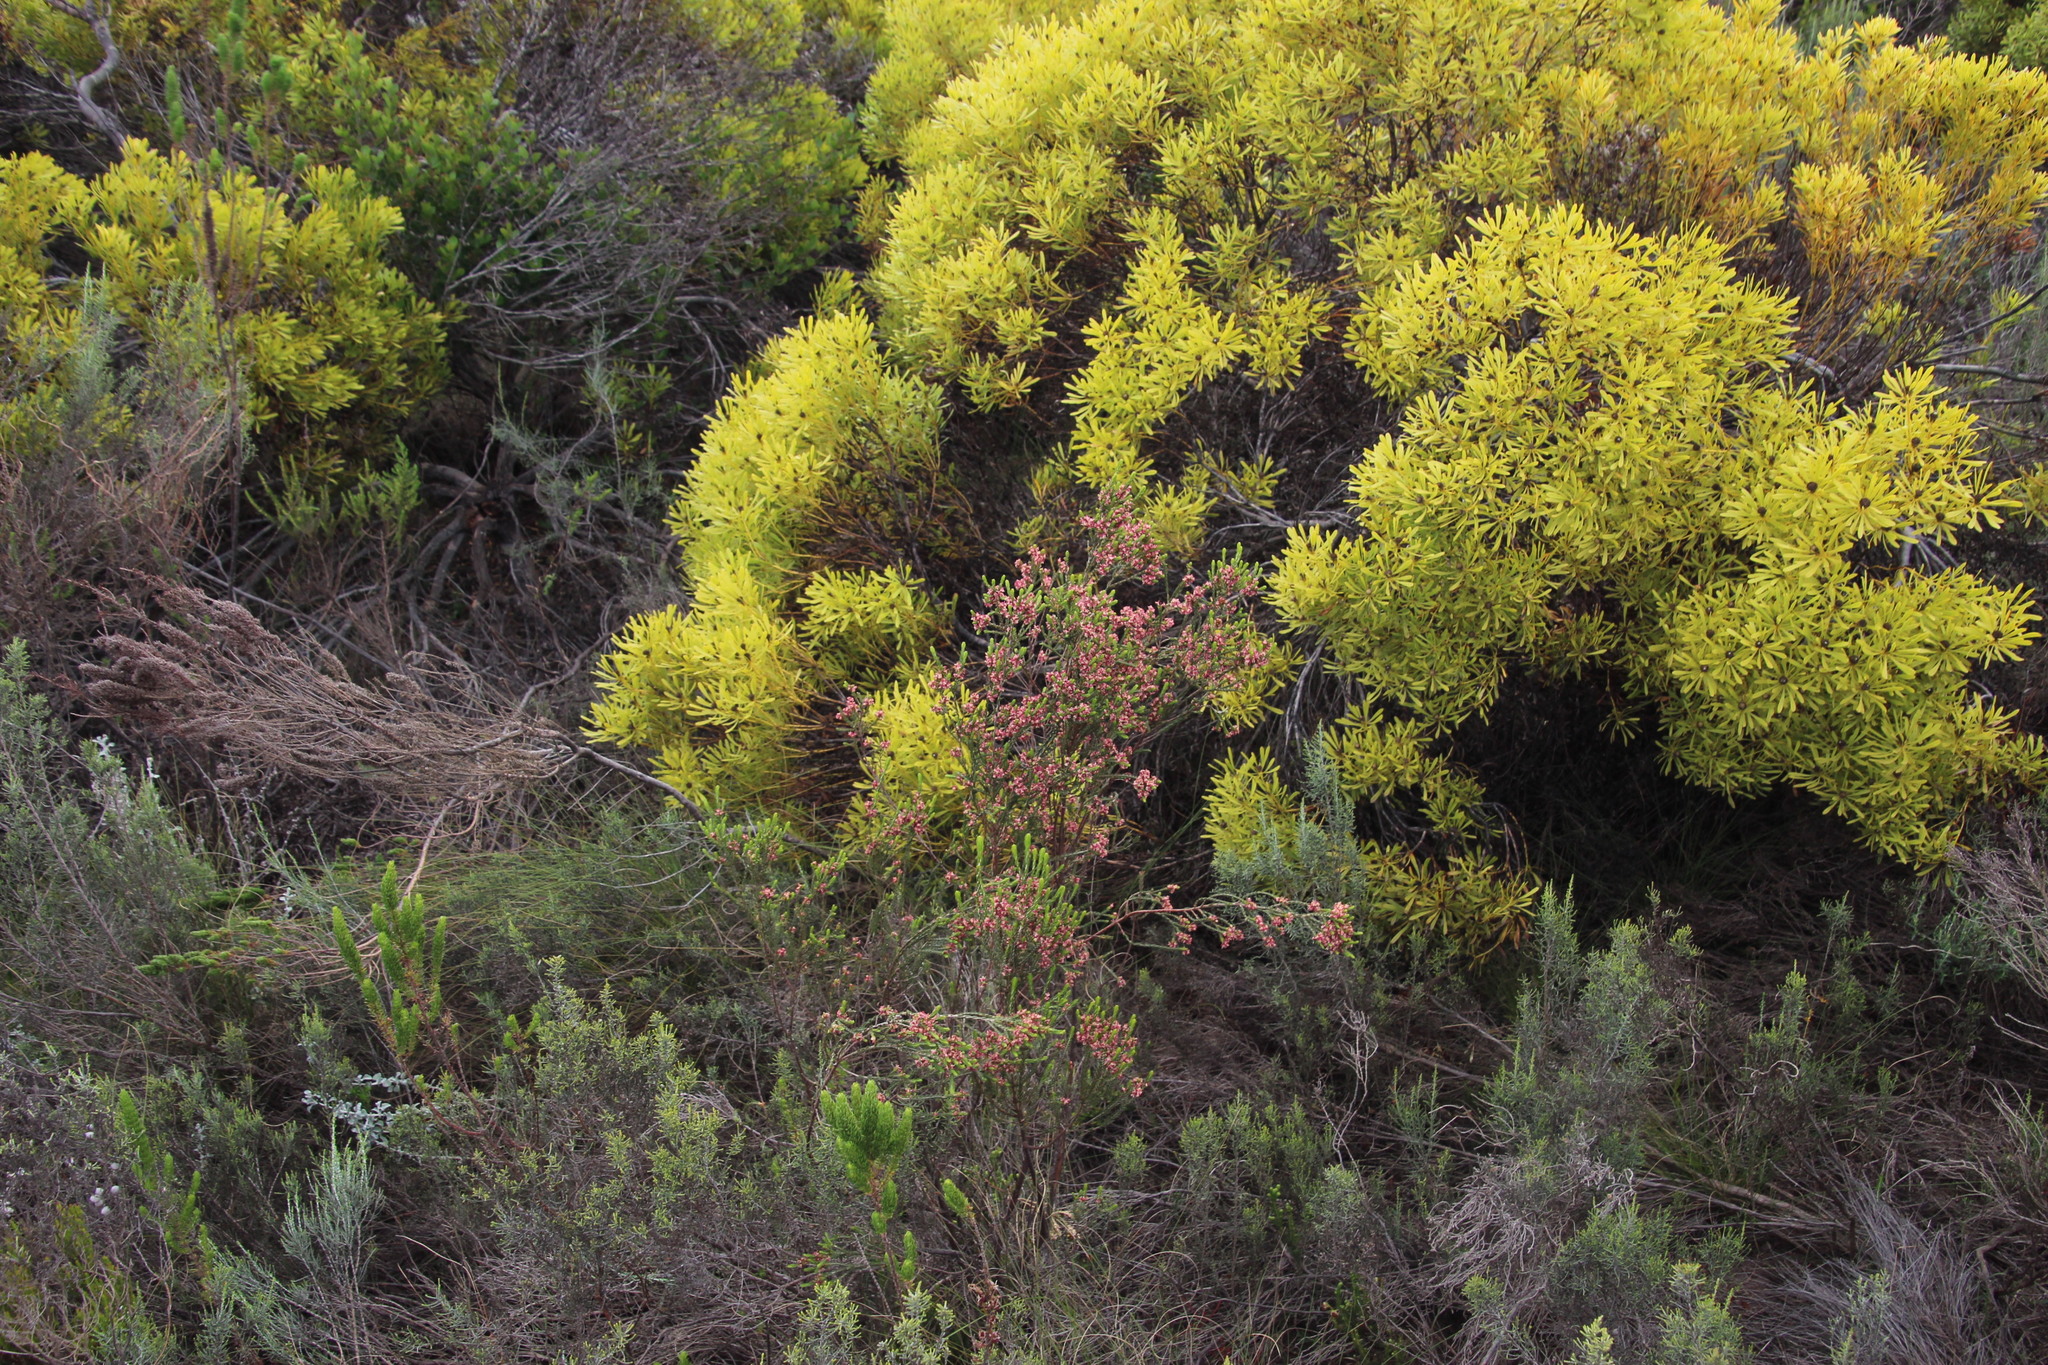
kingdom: Plantae
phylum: Tracheophyta
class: Magnoliopsida
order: Malvales
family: Thymelaeaceae
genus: Passerina
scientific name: Passerina corymbosa
